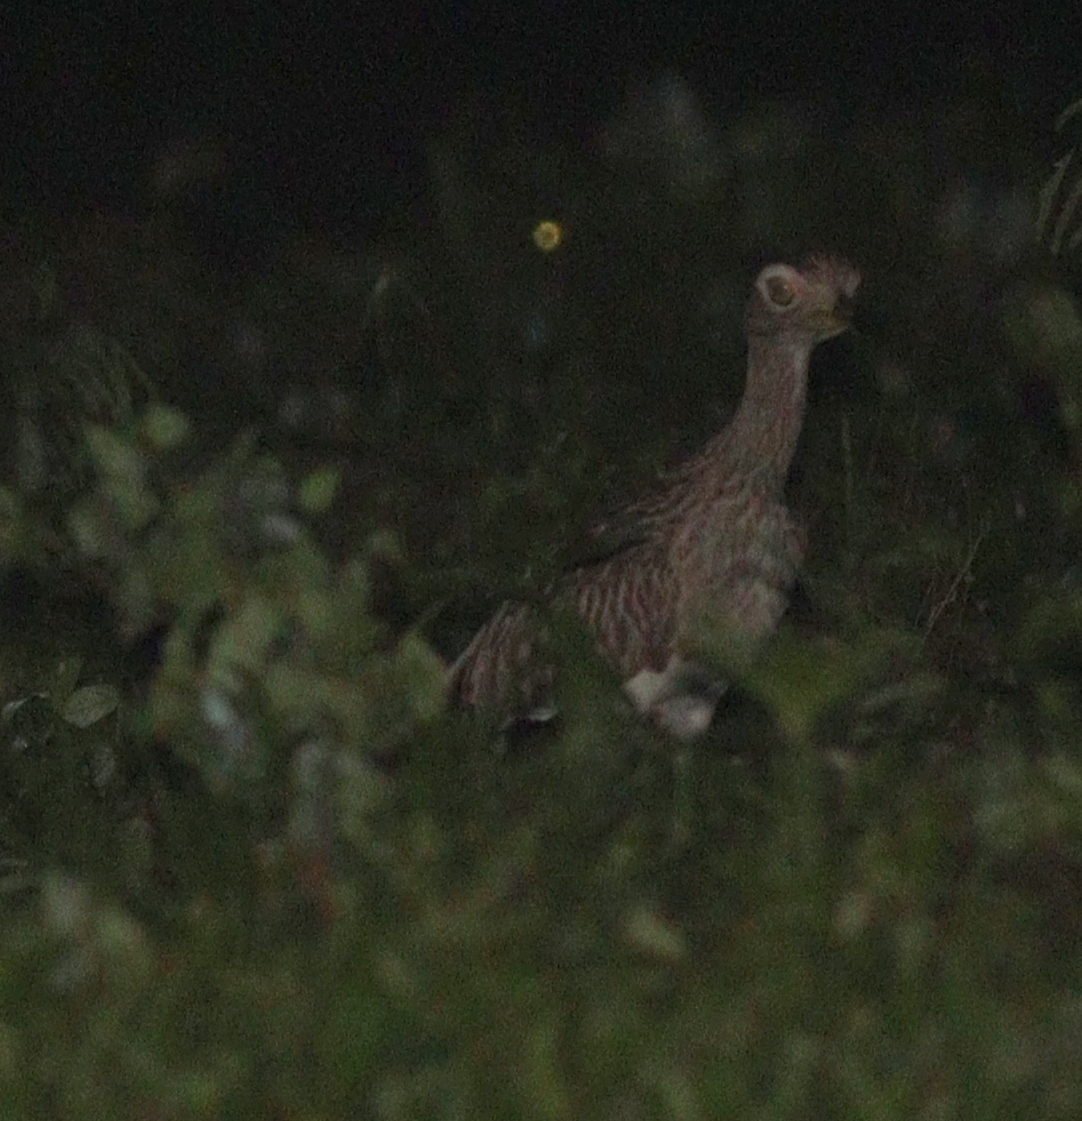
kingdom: Animalia
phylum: Chordata
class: Aves
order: Charadriiformes
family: Burhinidae
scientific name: Burhinidae
